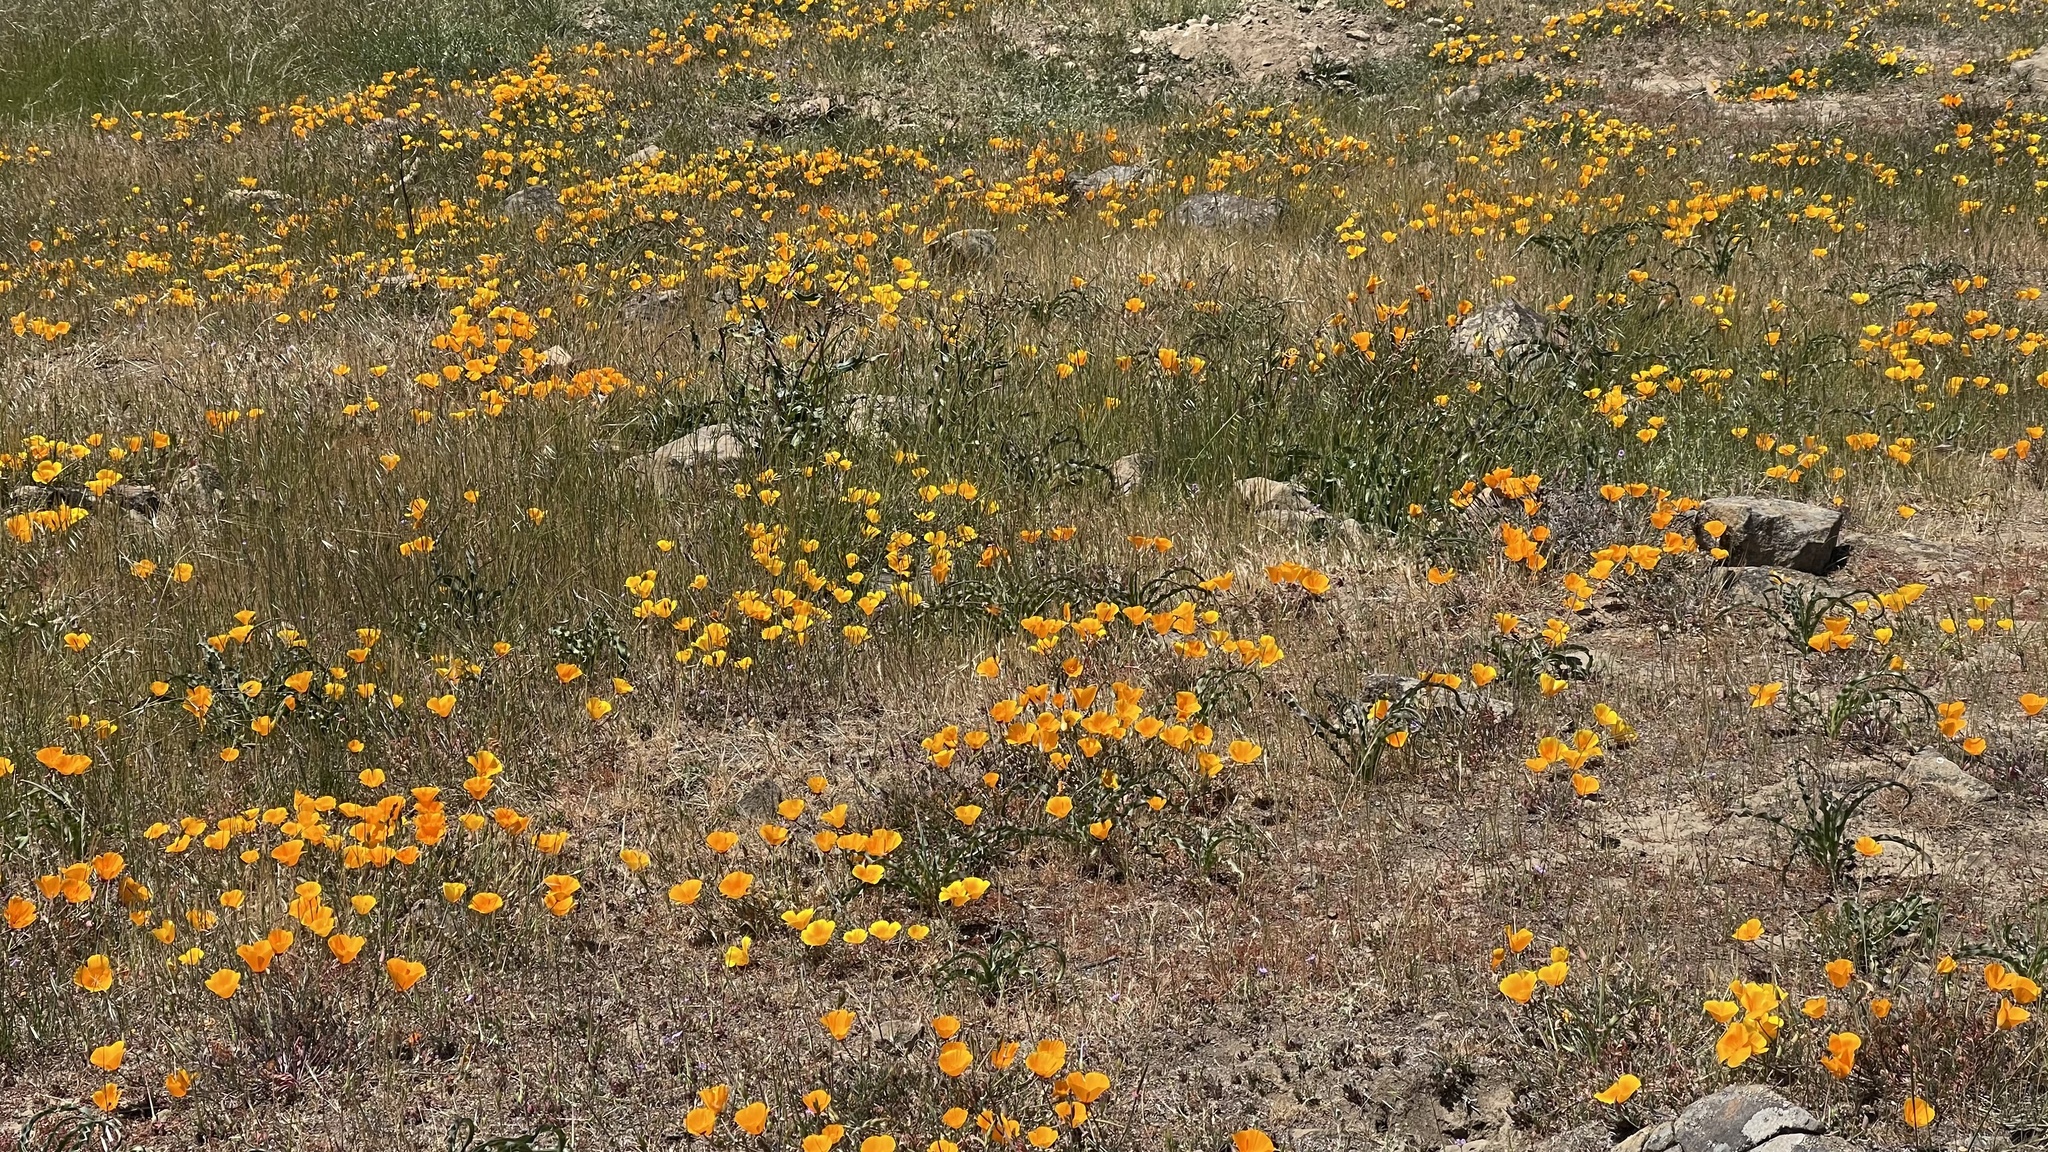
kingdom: Plantae
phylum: Tracheophyta
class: Magnoliopsida
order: Ranunculales
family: Papaveraceae
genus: Eschscholzia
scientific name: Eschscholzia californica
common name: California poppy
